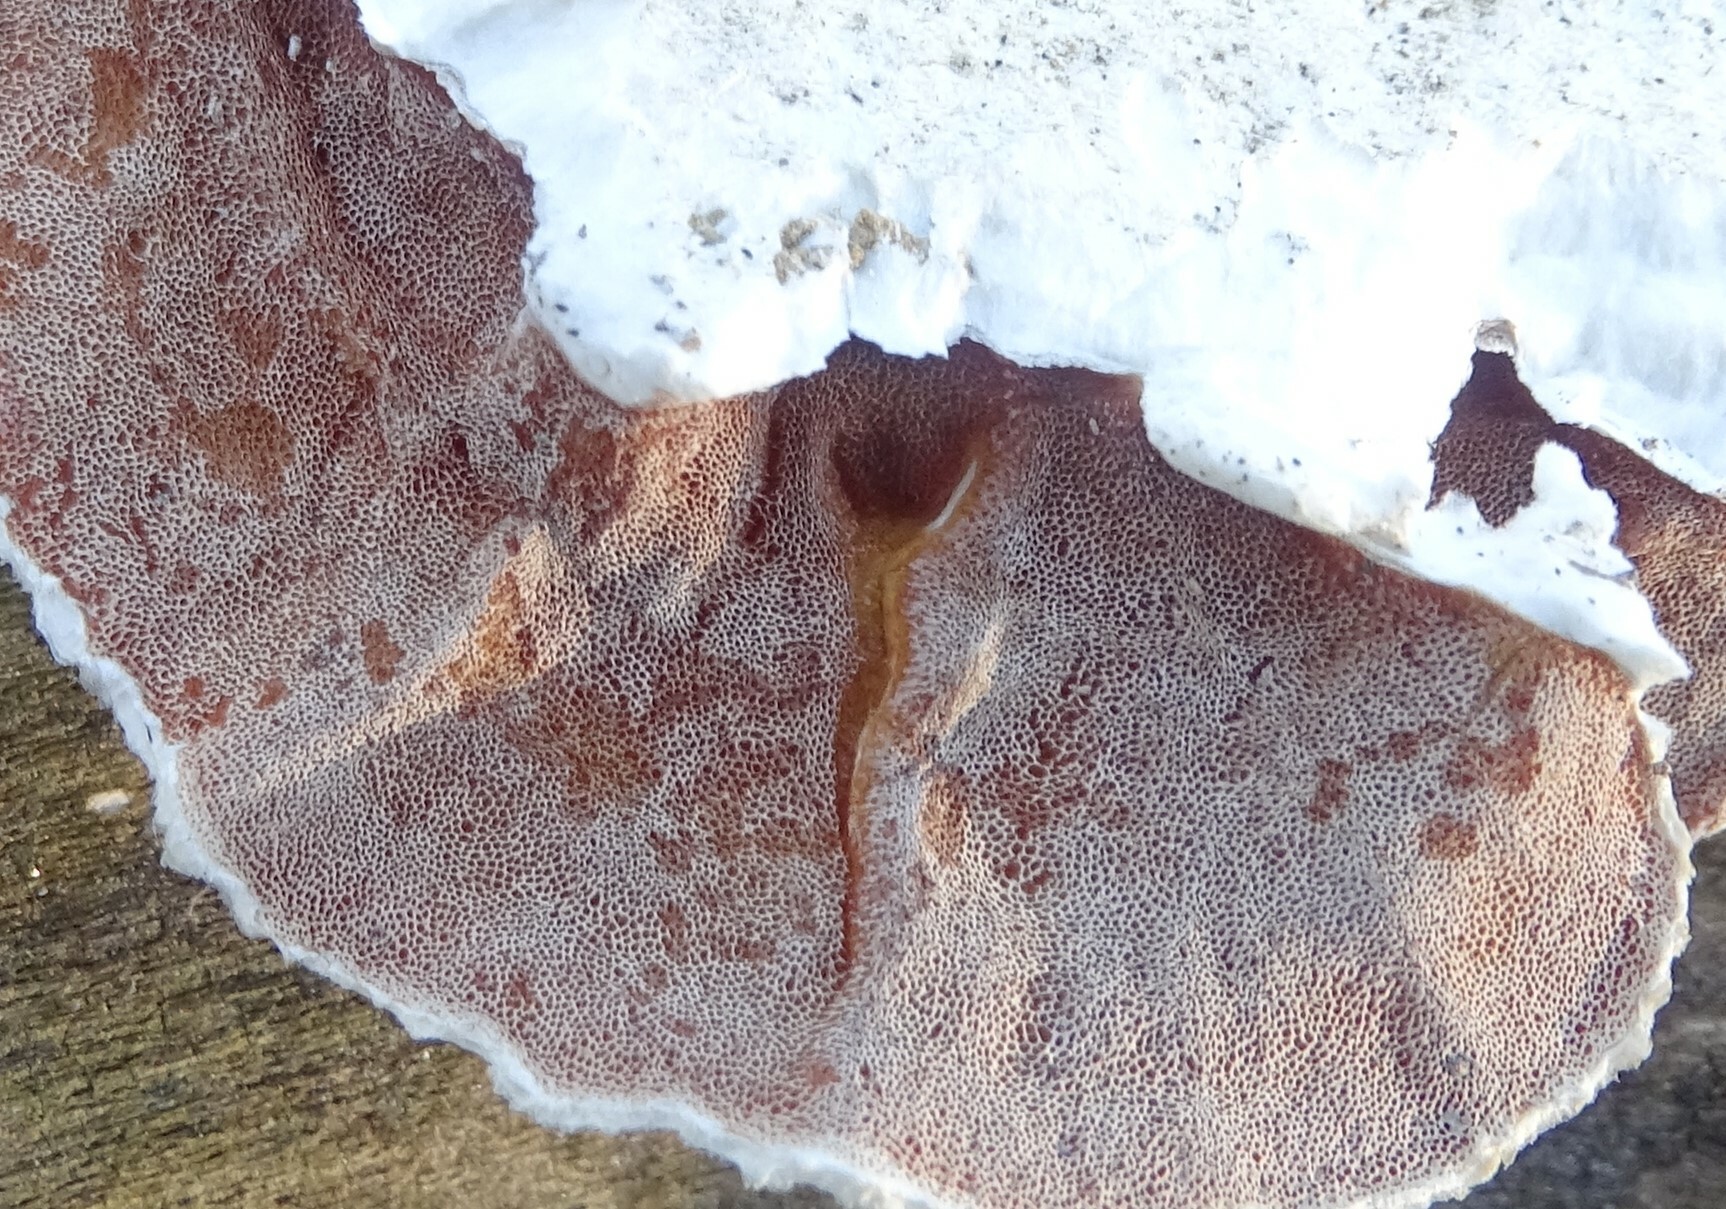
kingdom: Fungi
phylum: Basidiomycota
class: Agaricomycetes
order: Polyporales
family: Irpicaceae
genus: Vitreoporus
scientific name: Vitreoporus dichrous
